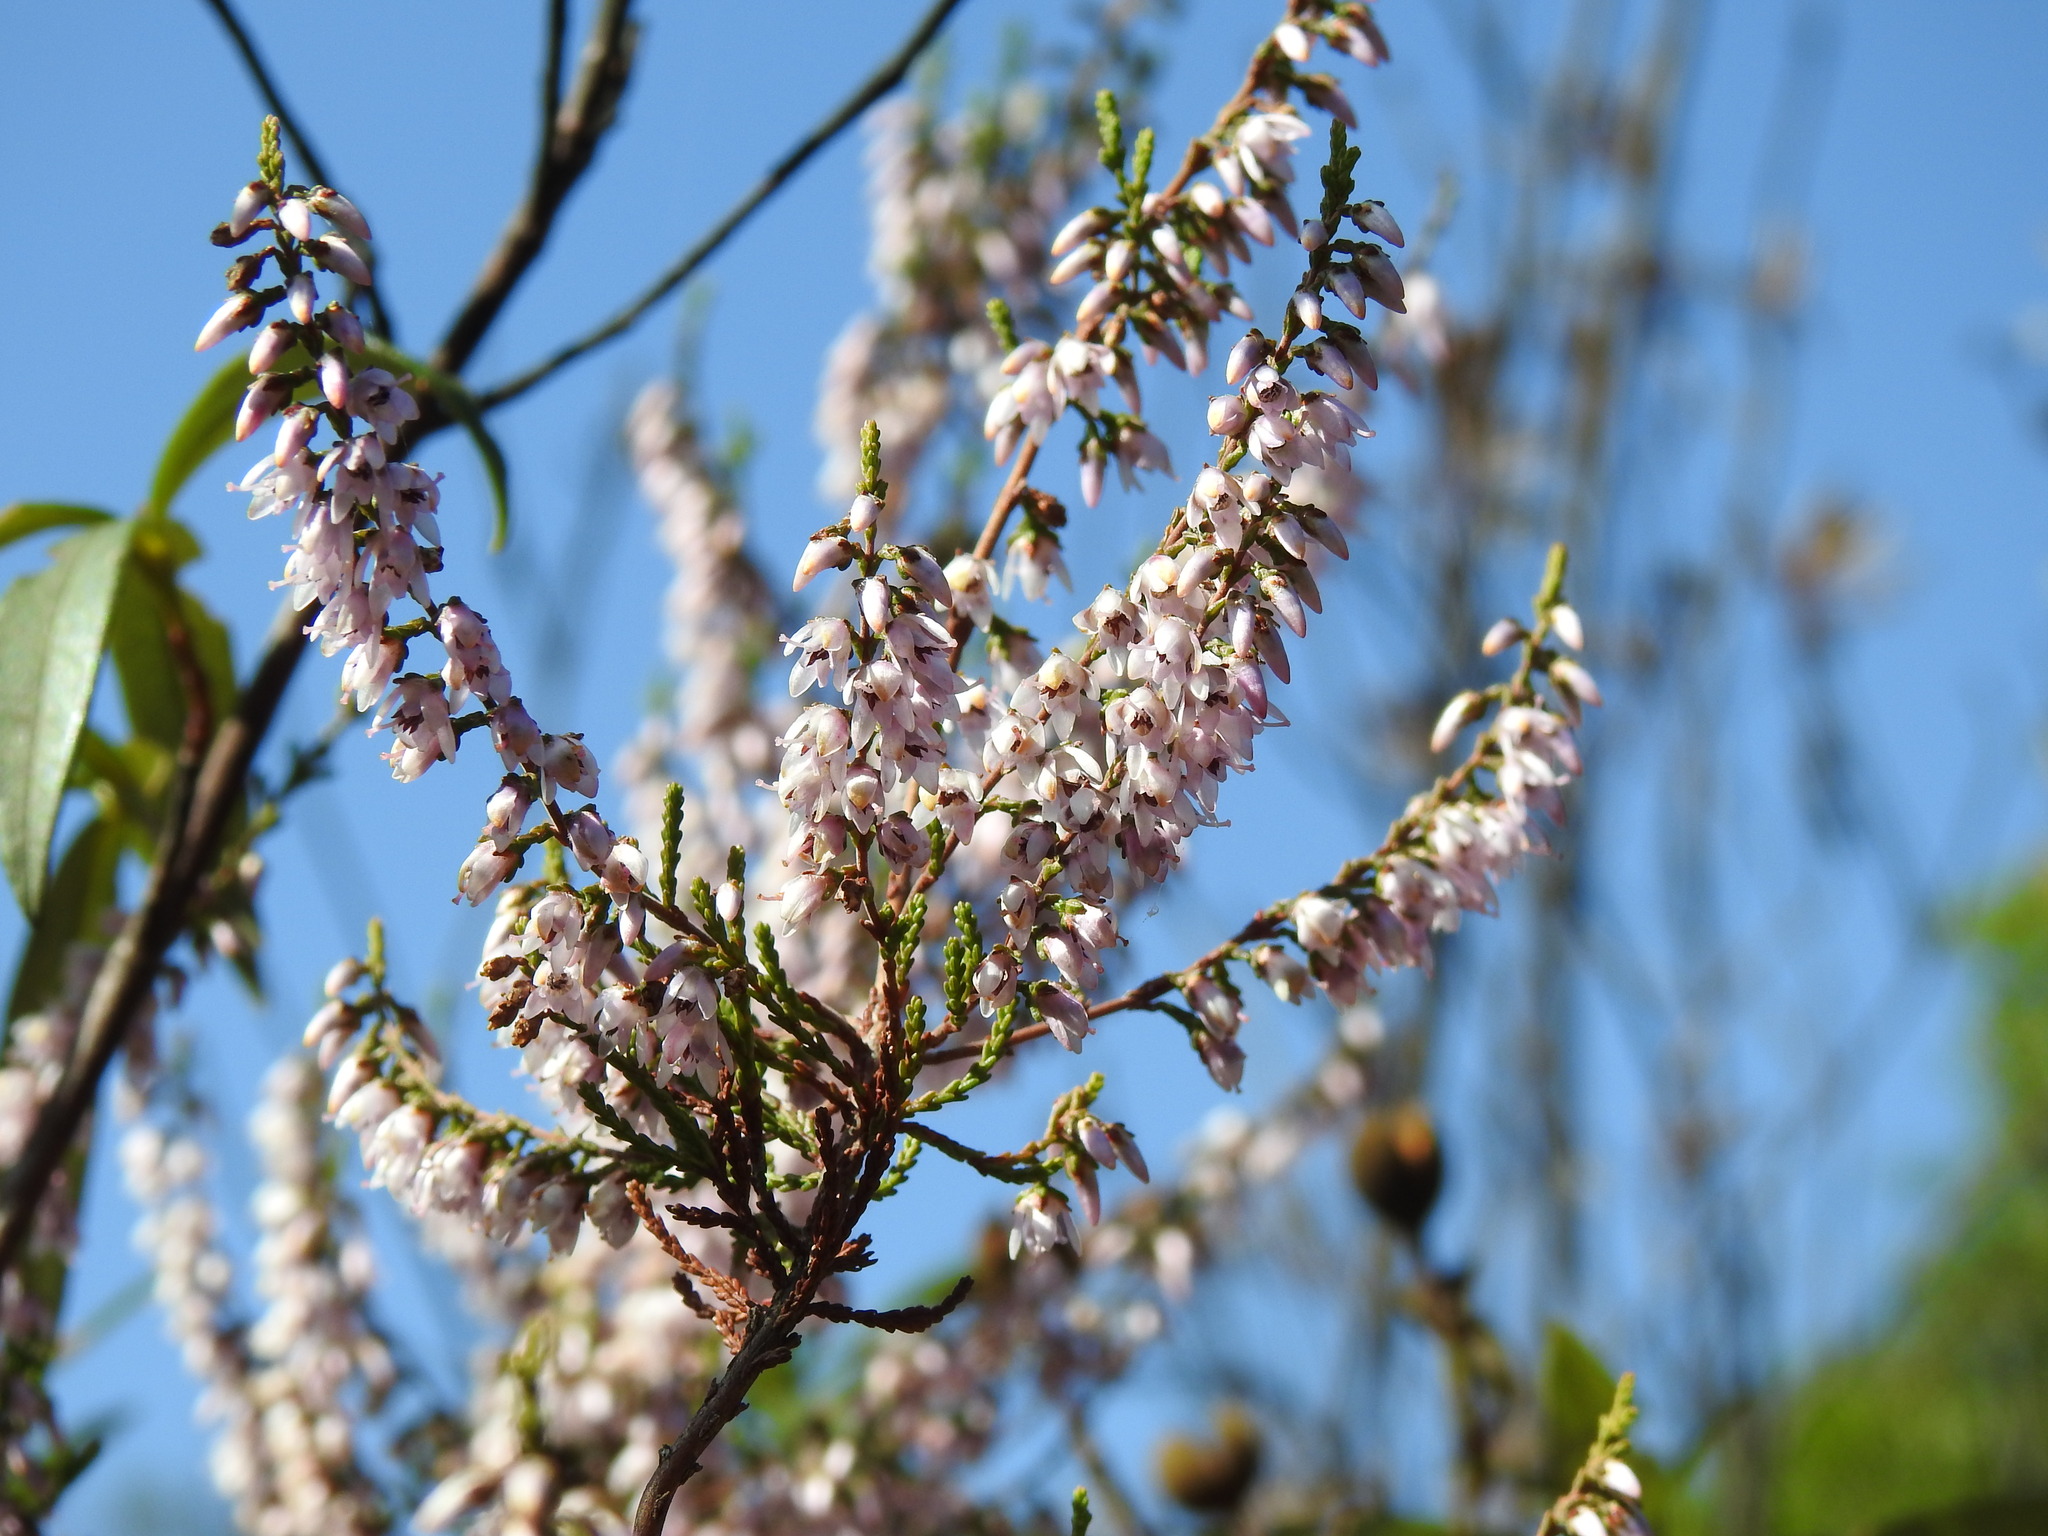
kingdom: Plantae
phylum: Tracheophyta
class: Magnoliopsida
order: Ericales
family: Ericaceae
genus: Calluna
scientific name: Calluna vulgaris
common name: Heather
